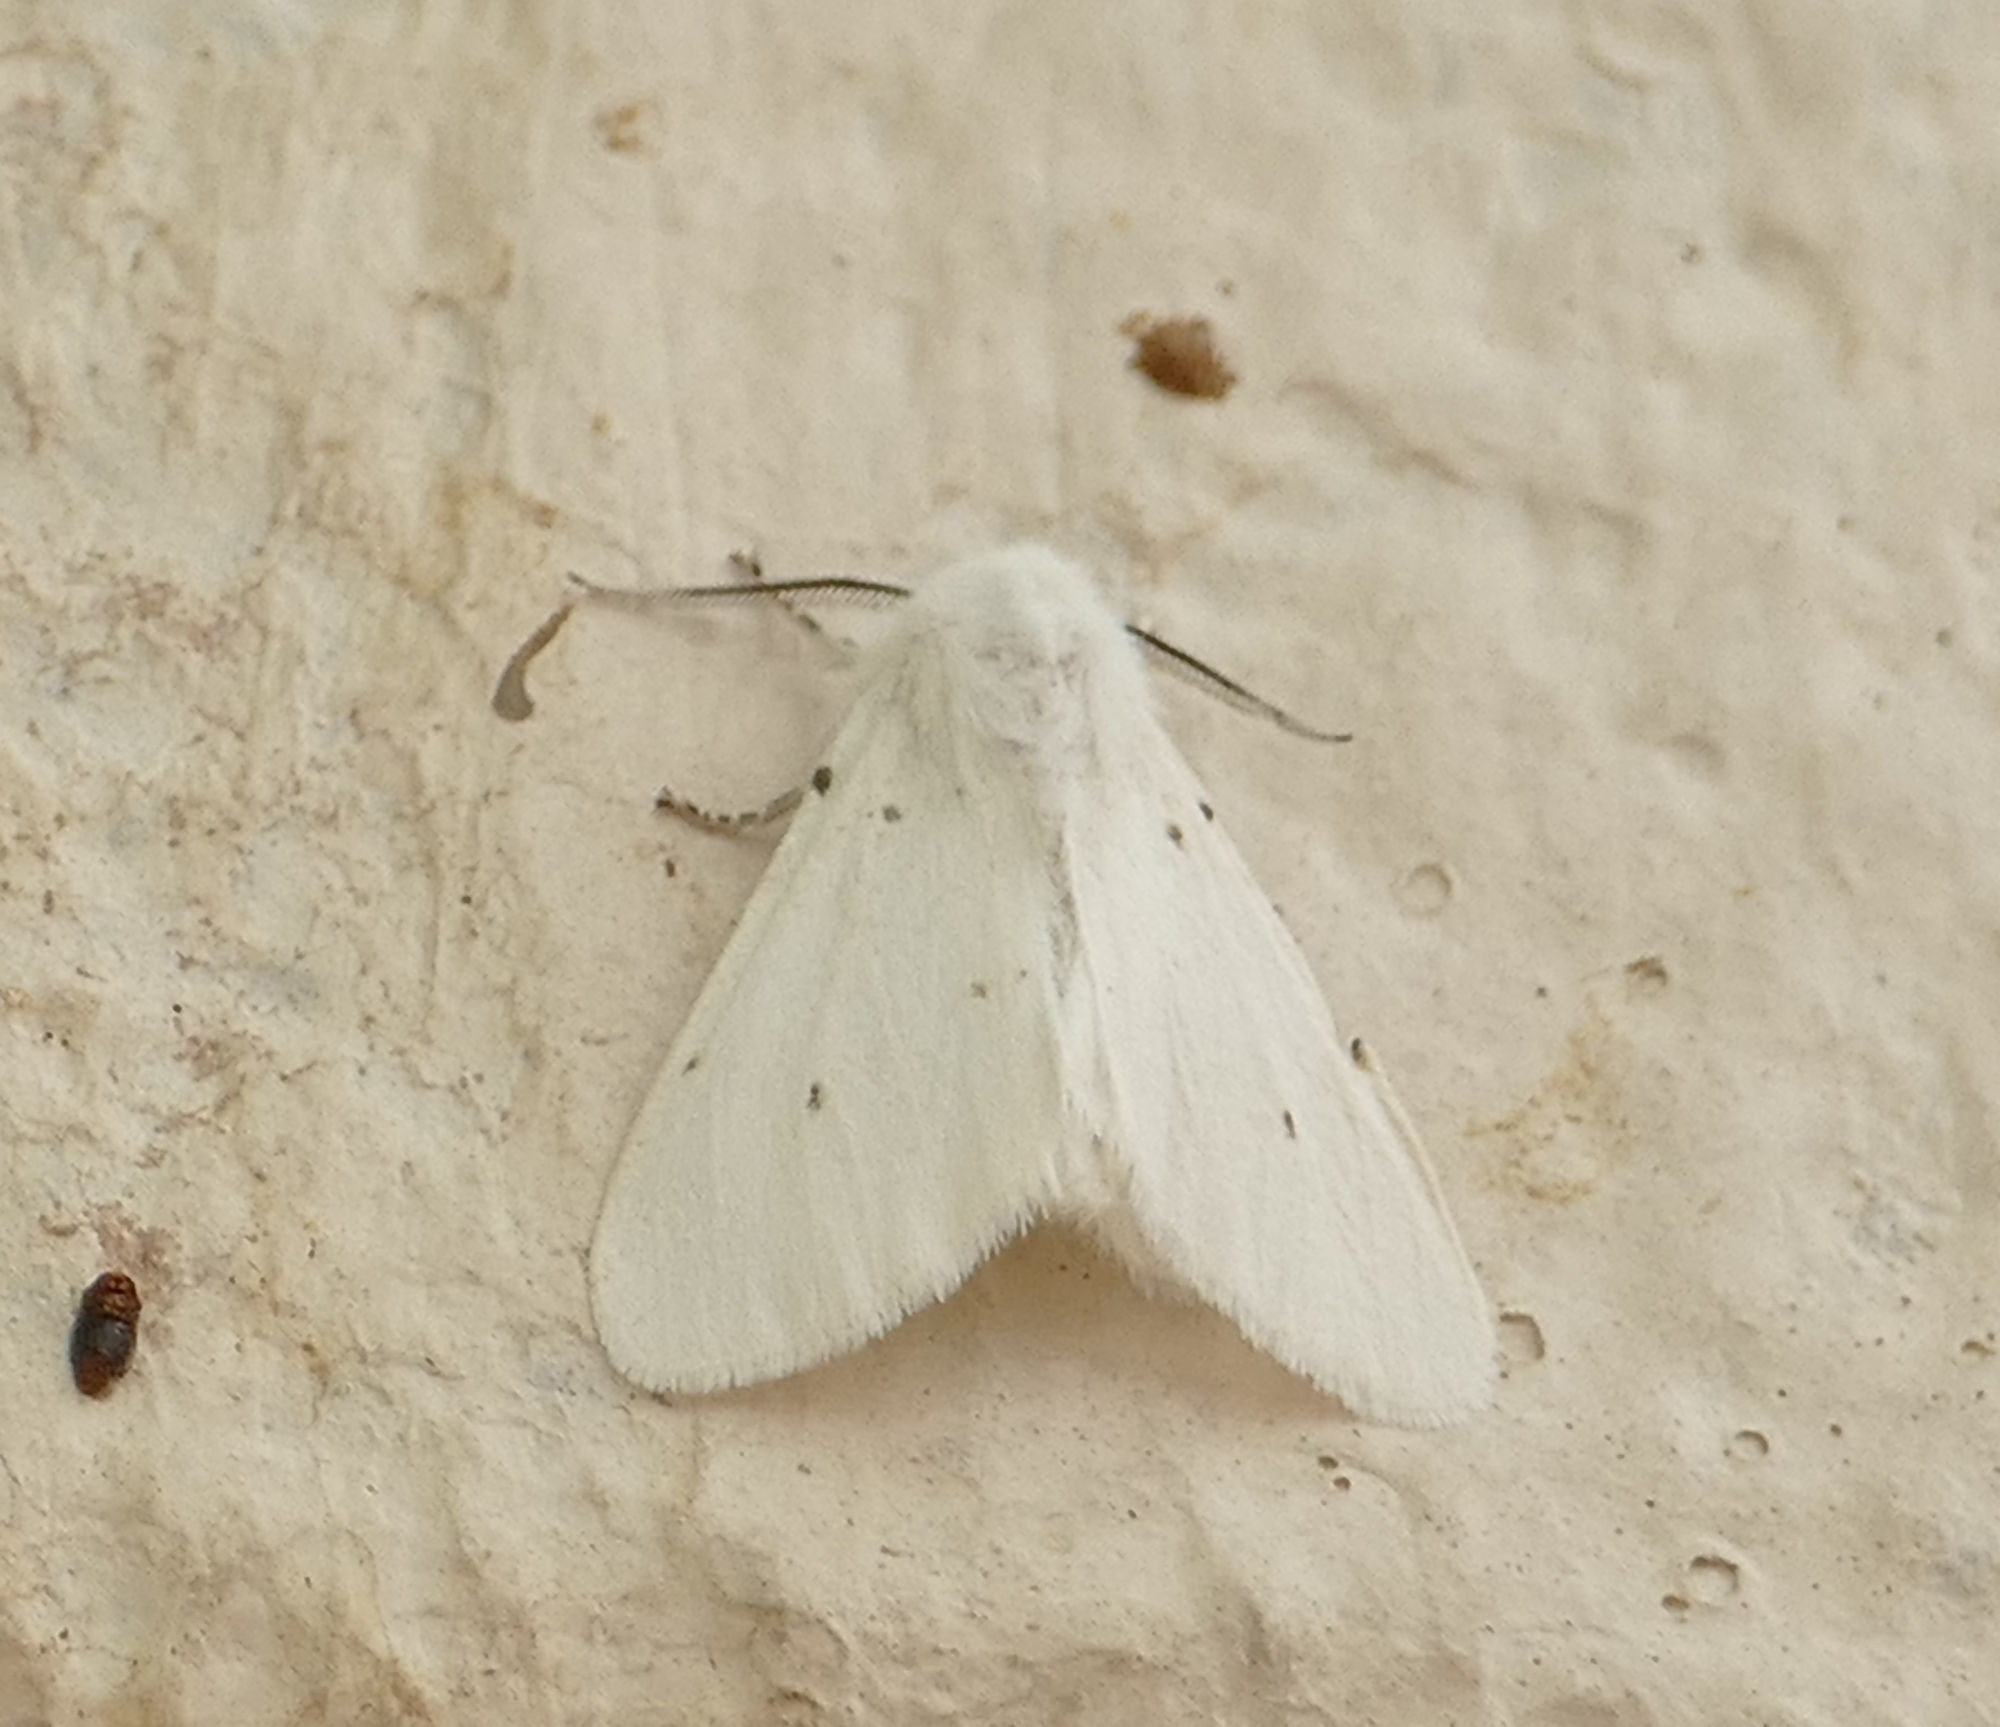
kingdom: Animalia
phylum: Arthropoda
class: Insecta
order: Lepidoptera
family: Erebidae
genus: Hyphantria
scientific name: Hyphantria cunea
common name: American white moth
